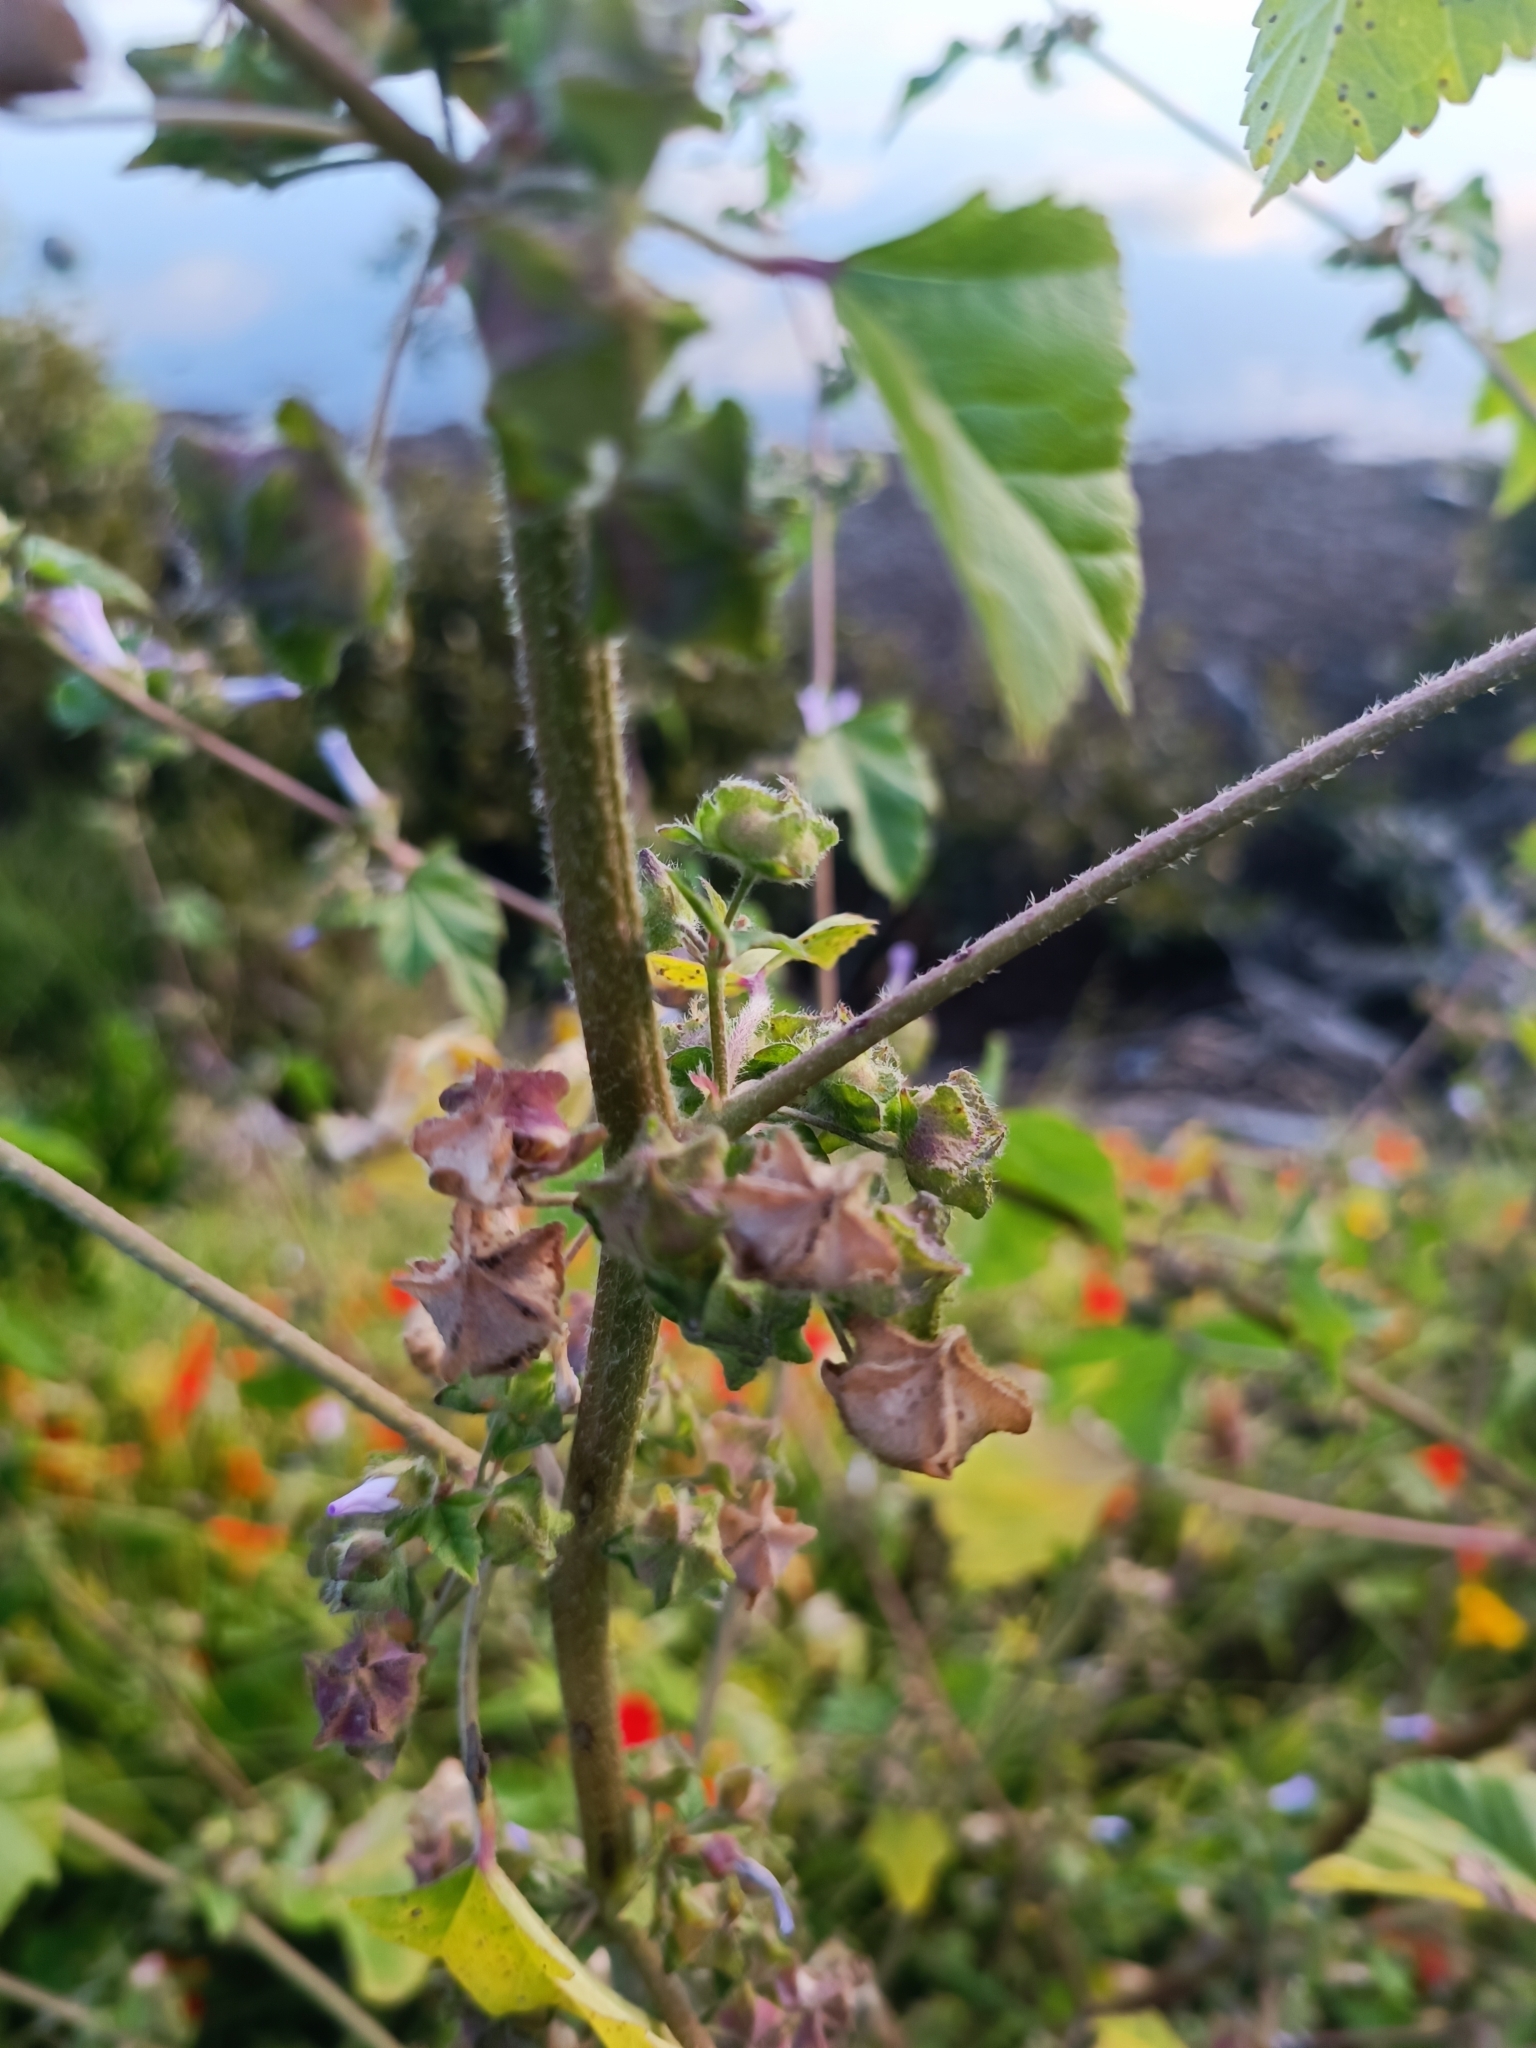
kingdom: Plantae
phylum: Tracheophyta
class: Magnoliopsida
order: Malvales
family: Malvaceae
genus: Malva
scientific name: Malva multiflora
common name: Cheeseweed
